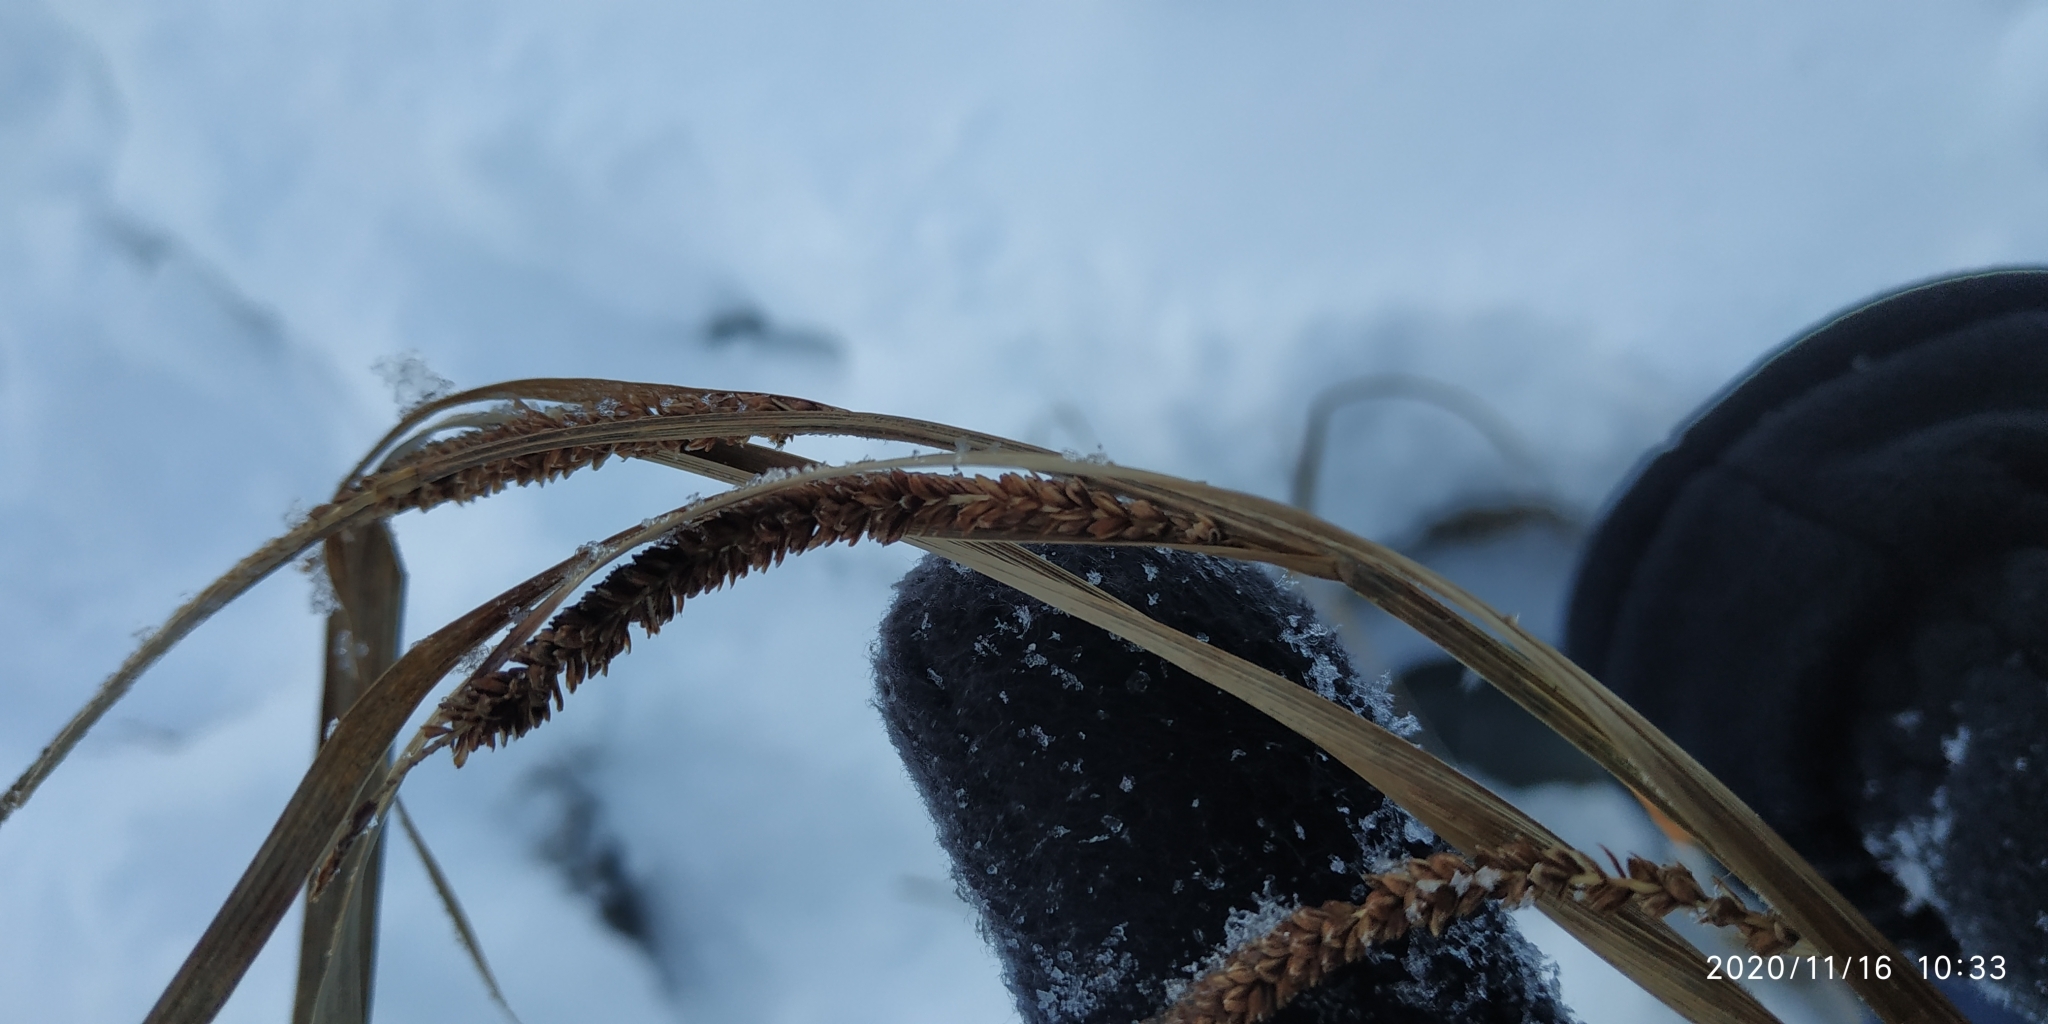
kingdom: Plantae
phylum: Tracheophyta
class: Liliopsida
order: Poales
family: Cyperaceae
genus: Carex
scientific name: Carex aquatilis
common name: Water sedge
